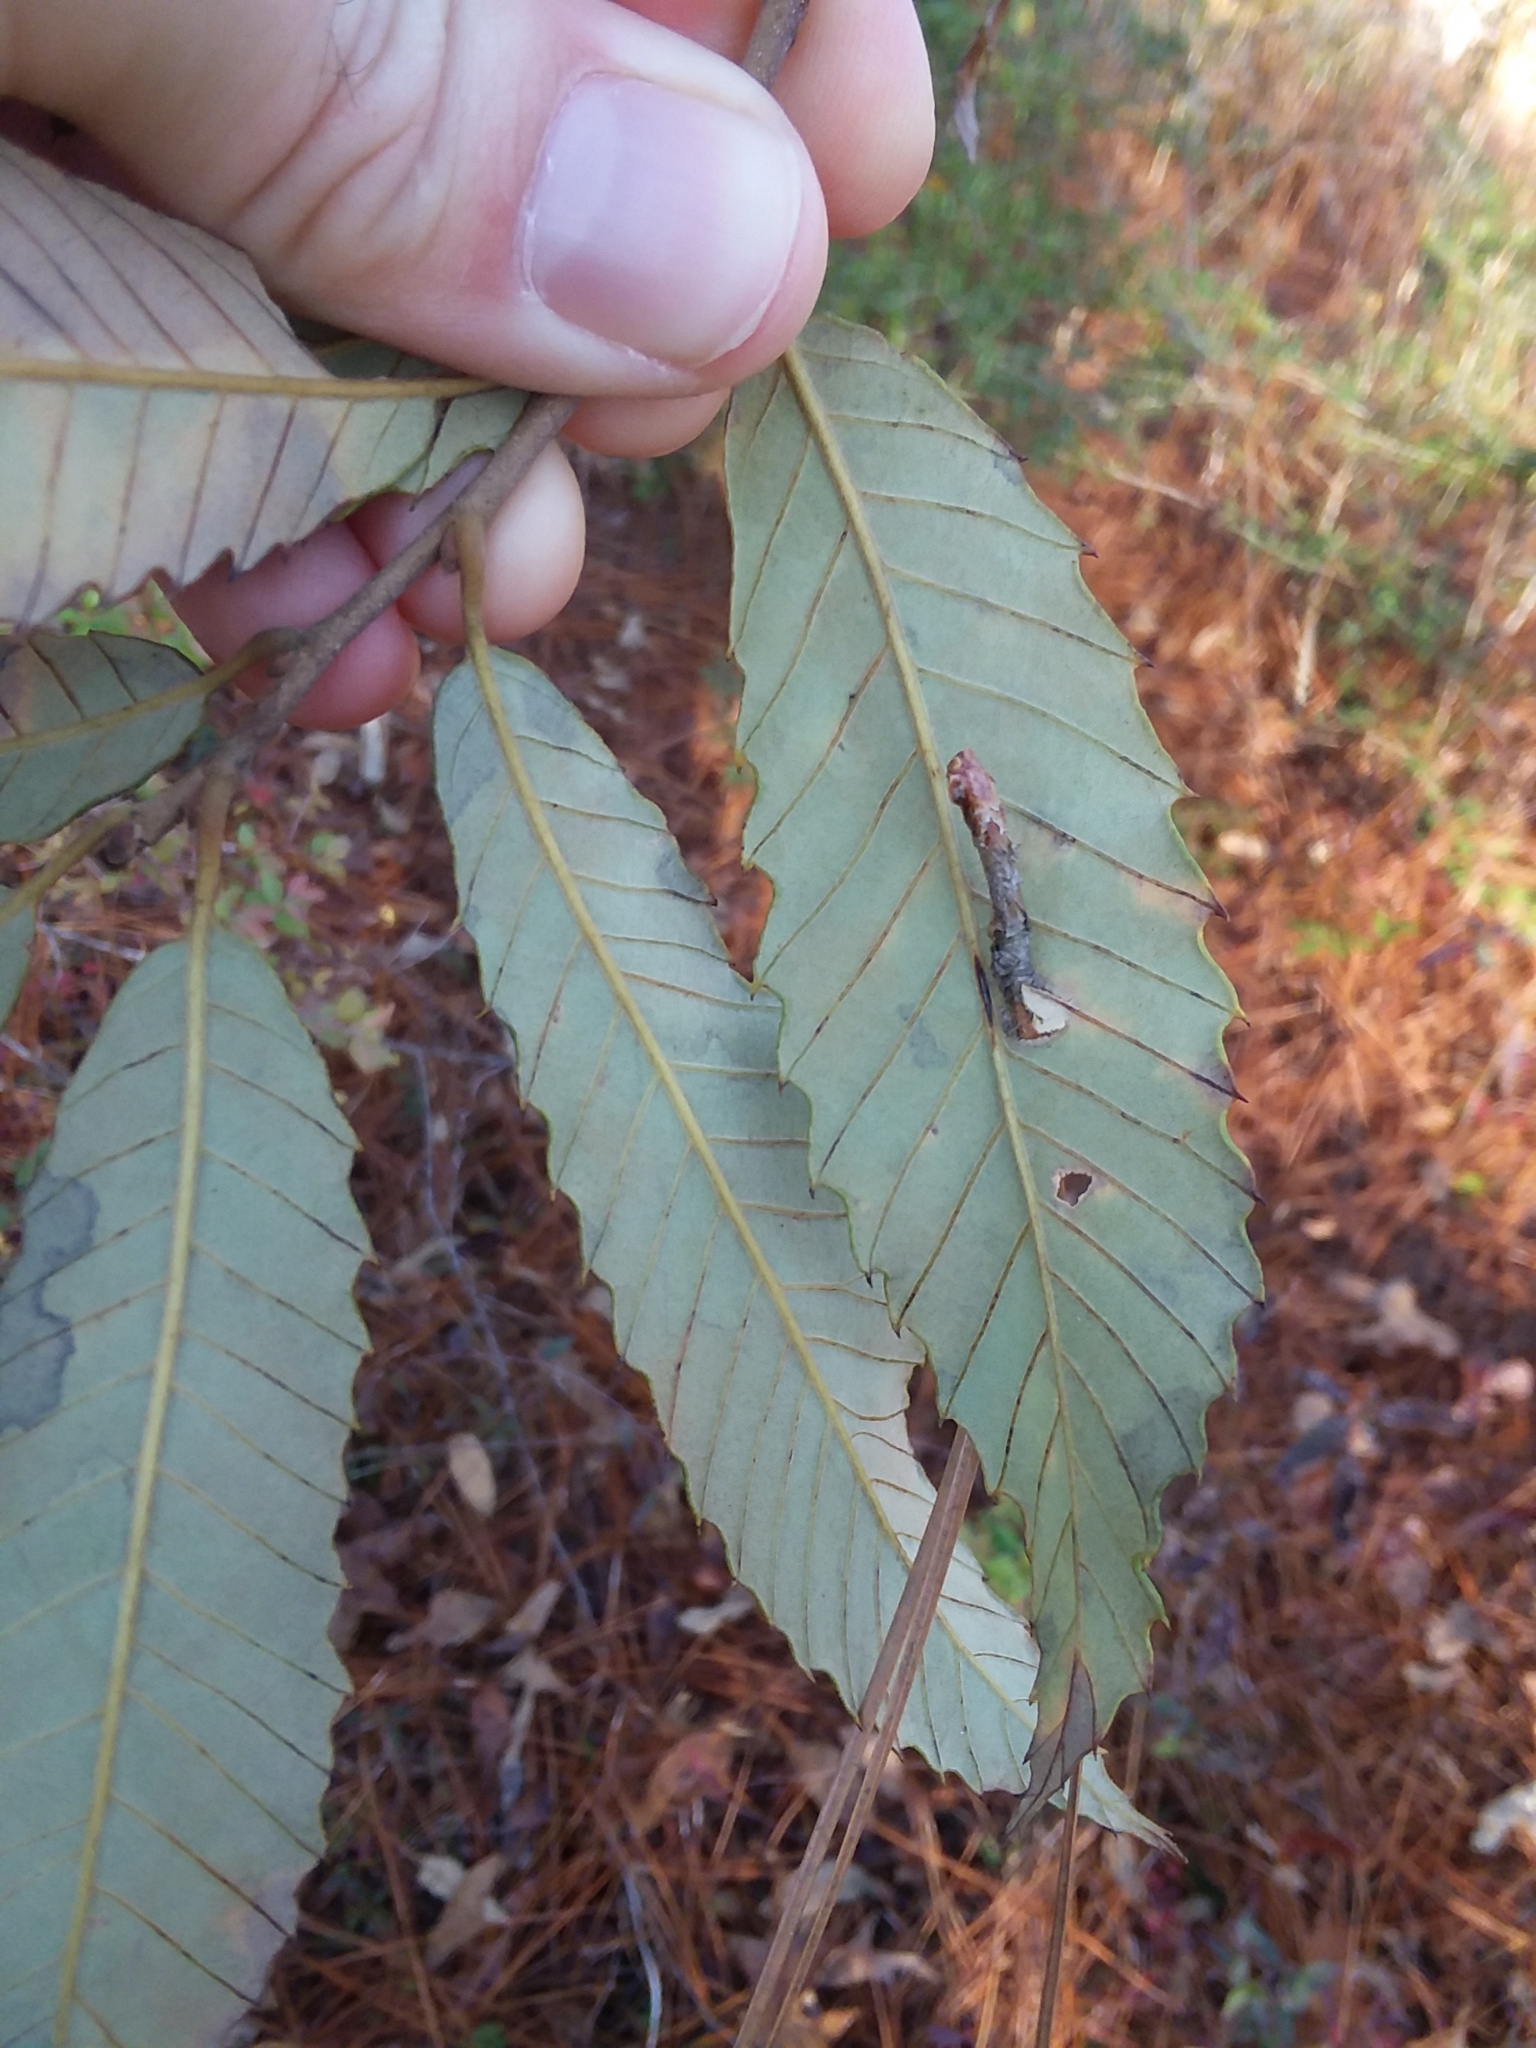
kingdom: Plantae
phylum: Tracheophyta
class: Magnoliopsida
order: Fagales
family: Fagaceae
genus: Castanea
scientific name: Castanea pumila
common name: Chinkapin
